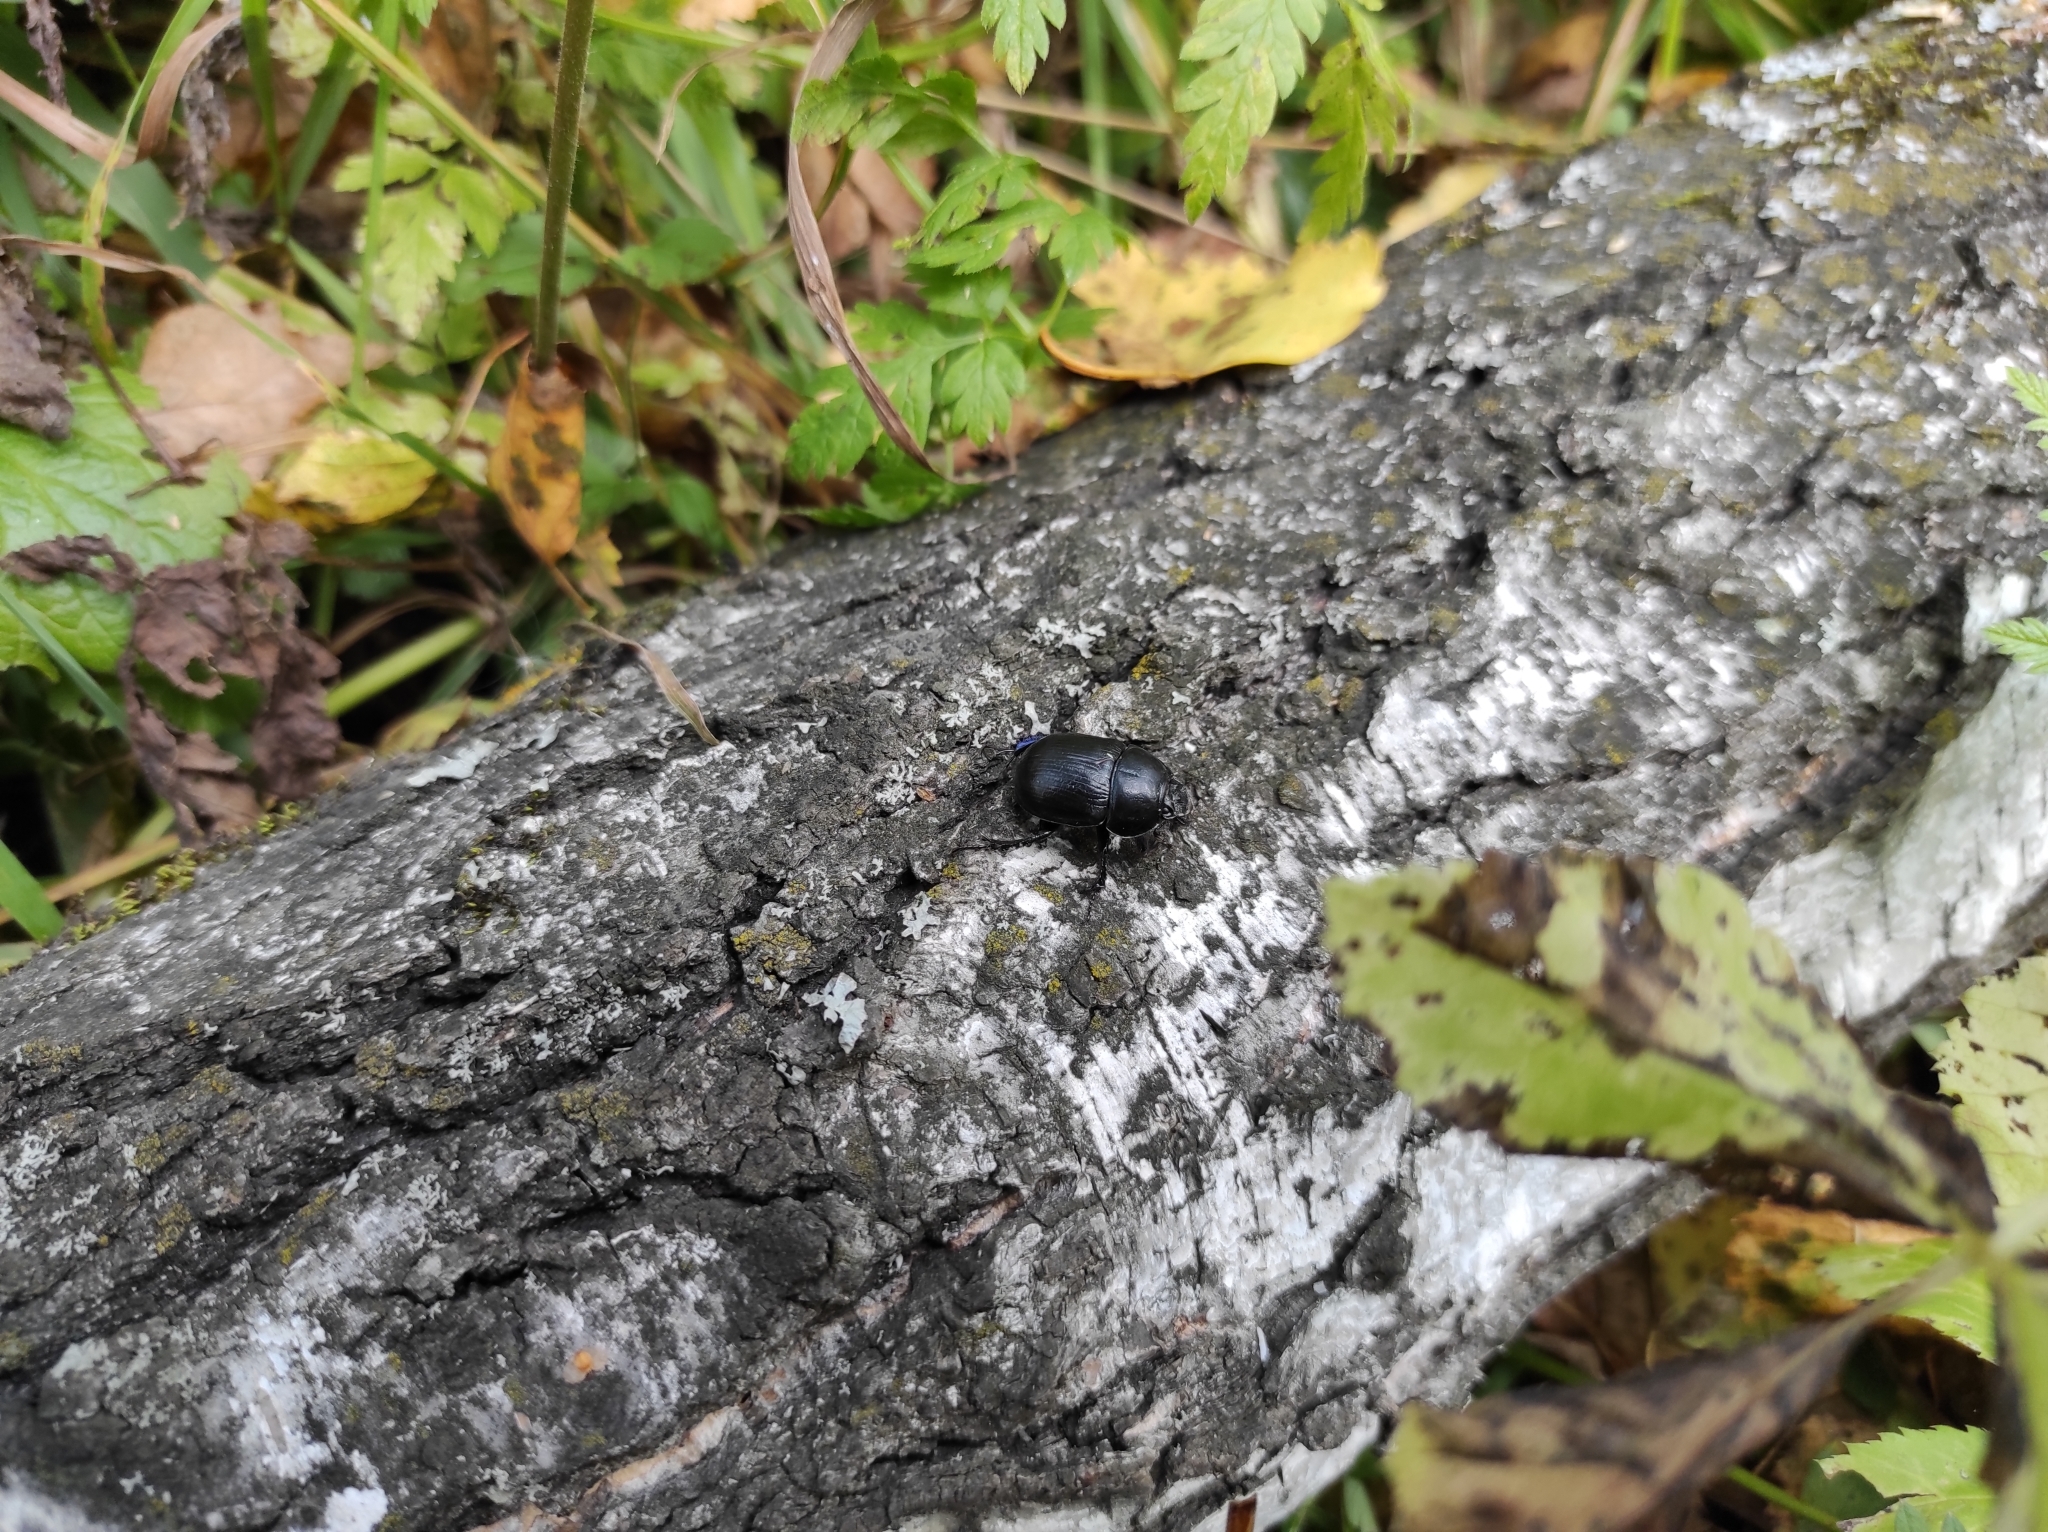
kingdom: Animalia
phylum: Arthropoda
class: Insecta
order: Coleoptera
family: Geotrupidae
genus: Anoplotrupes
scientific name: Anoplotrupes stercorosus
